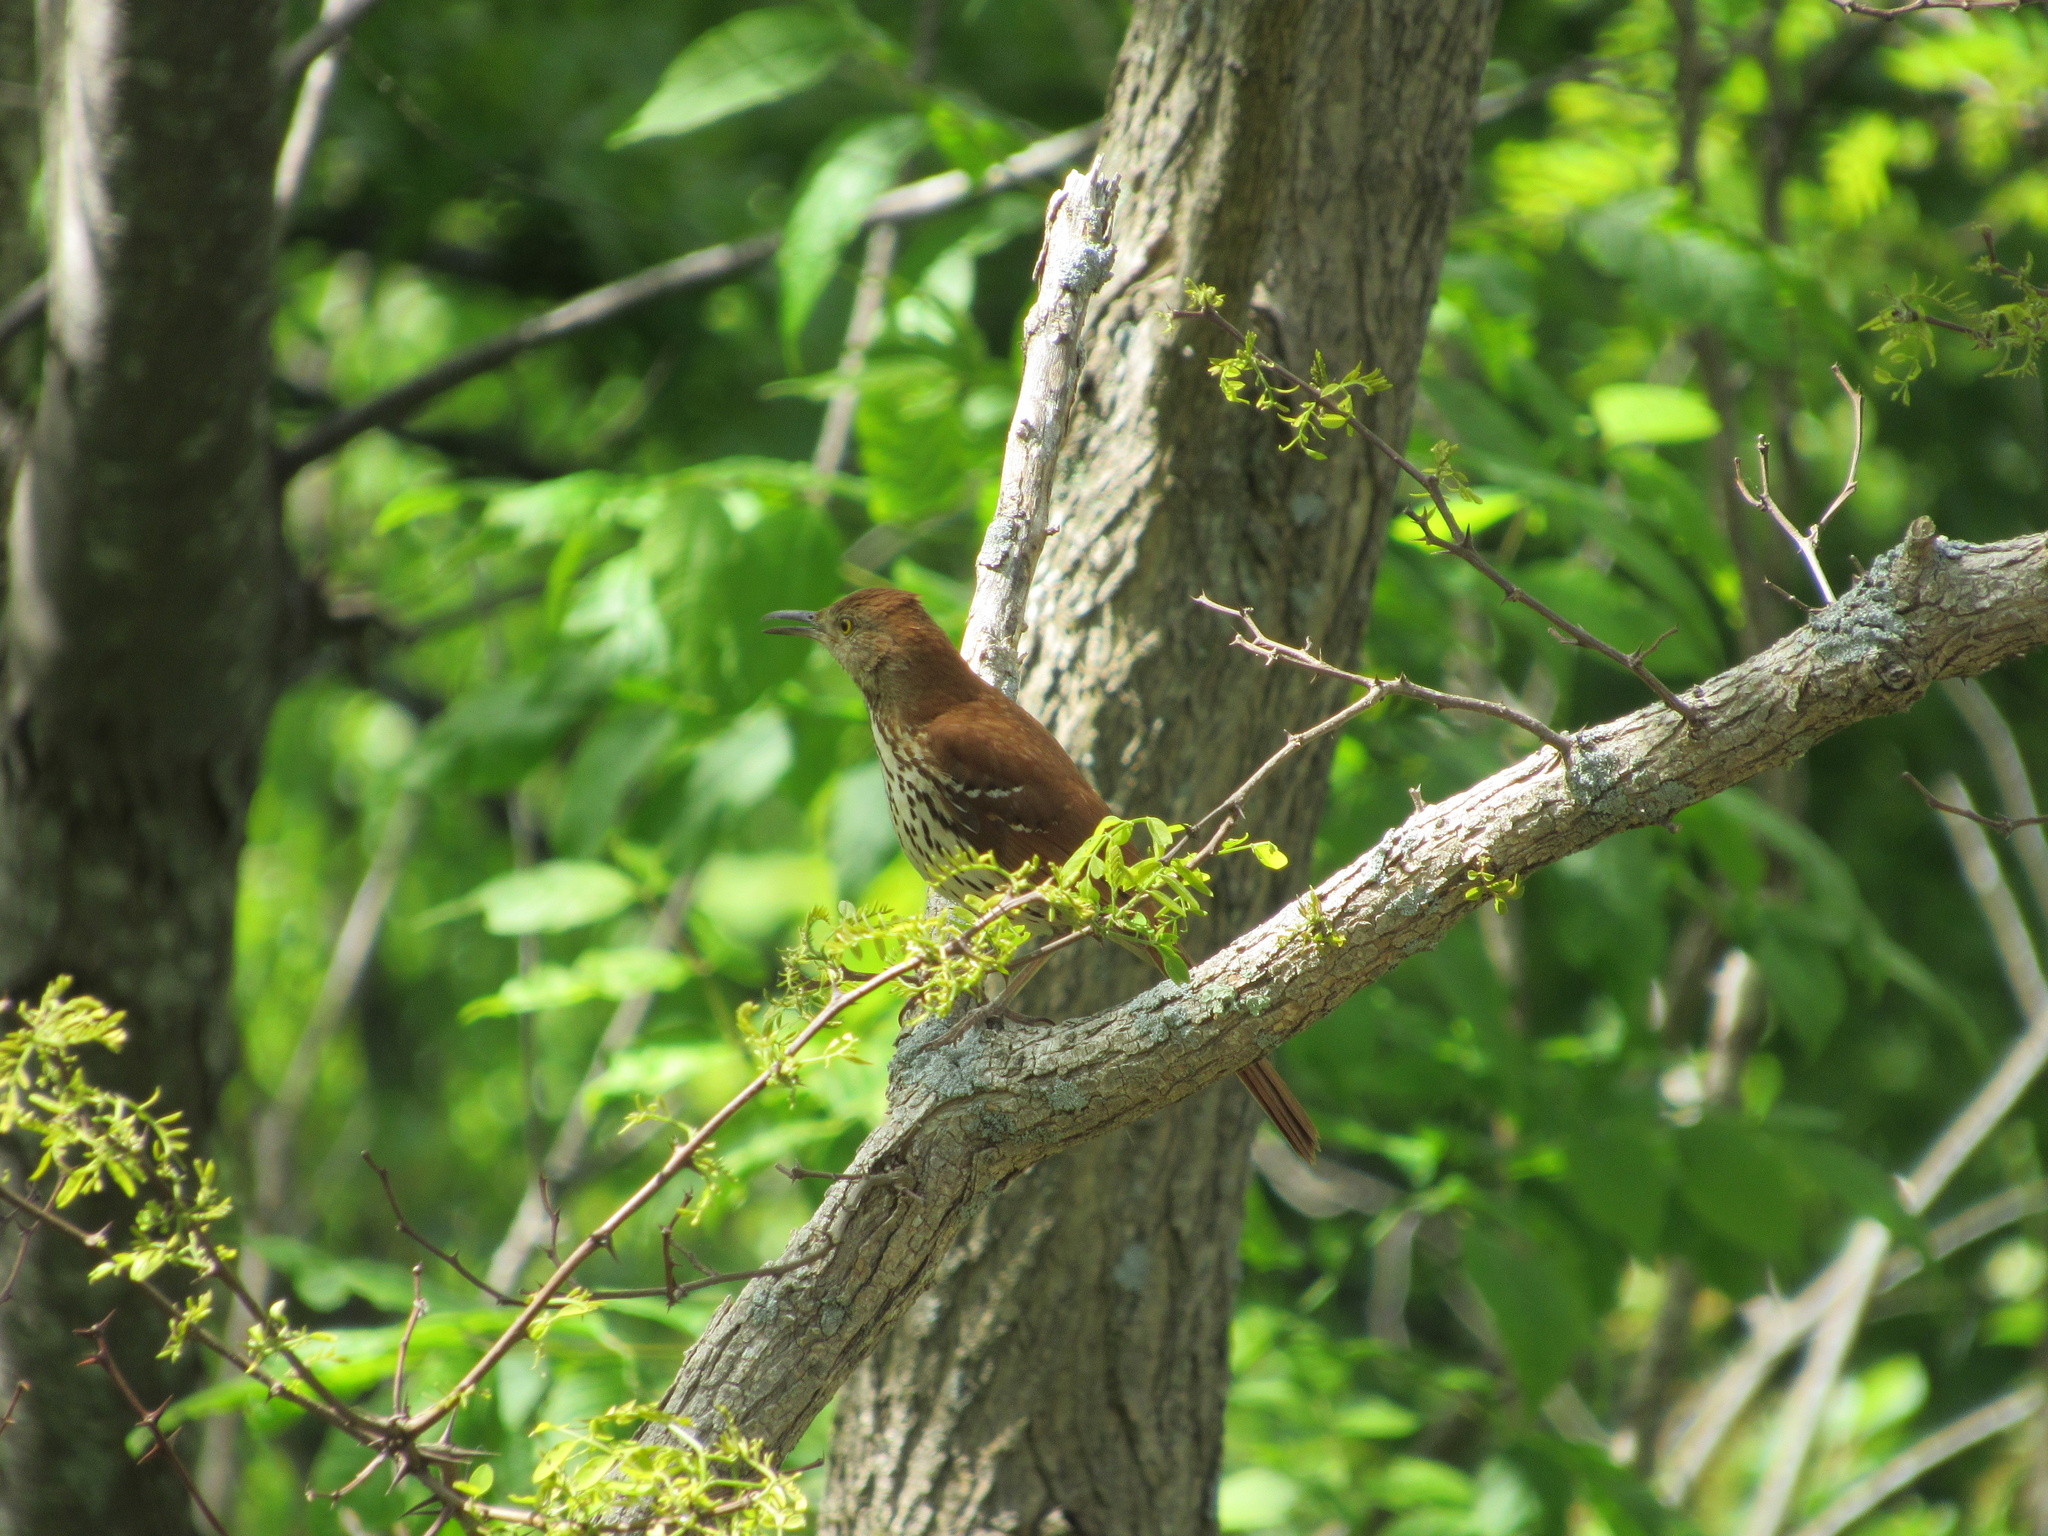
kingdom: Animalia
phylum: Chordata
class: Aves
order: Passeriformes
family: Mimidae
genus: Toxostoma
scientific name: Toxostoma rufum
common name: Brown thrasher
